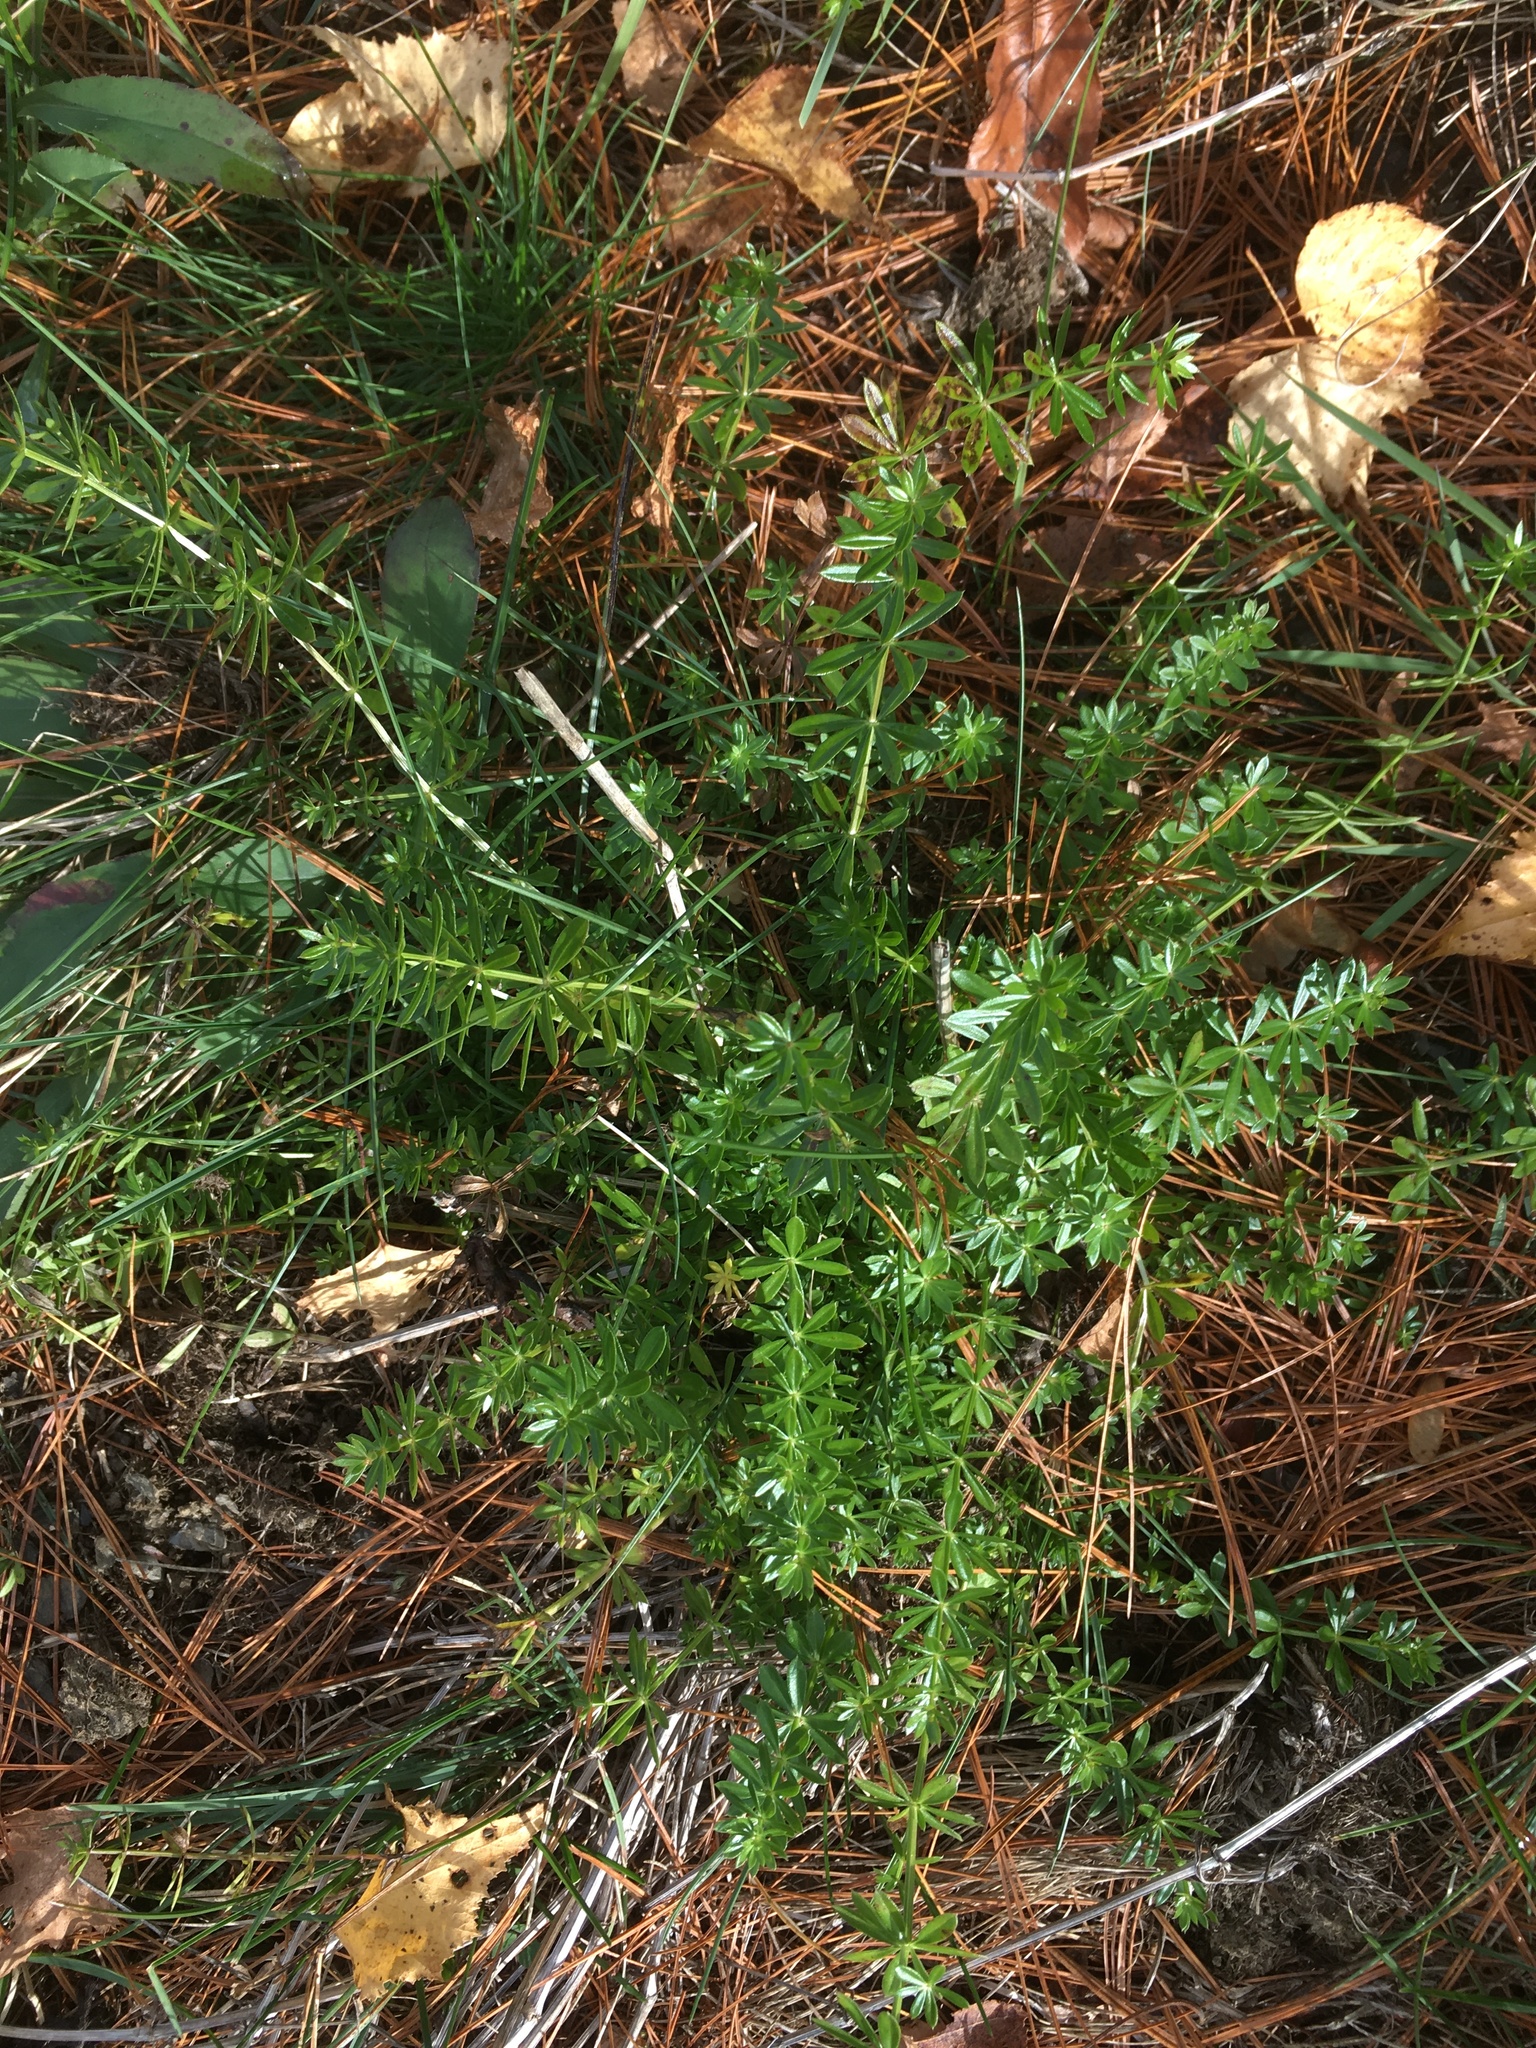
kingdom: Plantae
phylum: Tracheophyta
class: Magnoliopsida
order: Gentianales
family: Rubiaceae
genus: Galium
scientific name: Galium mollugo
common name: Hedge bedstraw
